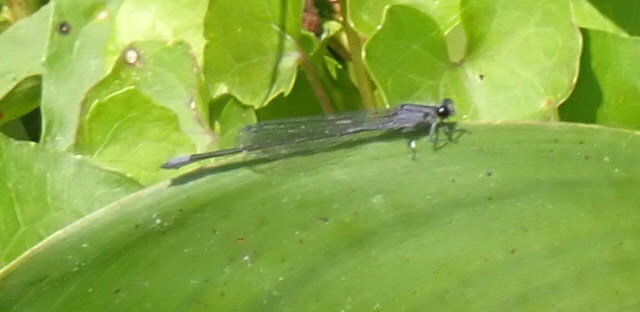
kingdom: Animalia
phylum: Arthropoda
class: Insecta
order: Odonata
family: Coenagrionidae
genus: Enallagma
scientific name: Enallagma cardenium
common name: Purple bluet
